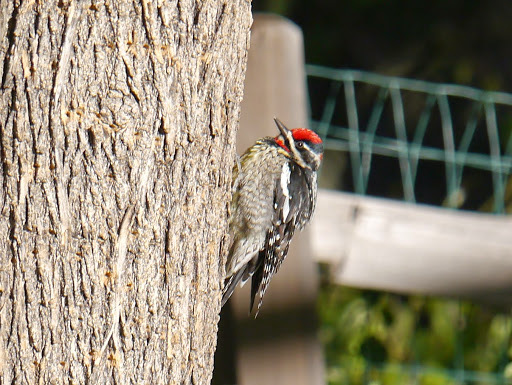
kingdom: Animalia
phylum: Chordata
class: Aves
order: Piciformes
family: Picidae
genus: Sphyrapicus
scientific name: Sphyrapicus nuchalis
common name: Red-naped sapsucker
